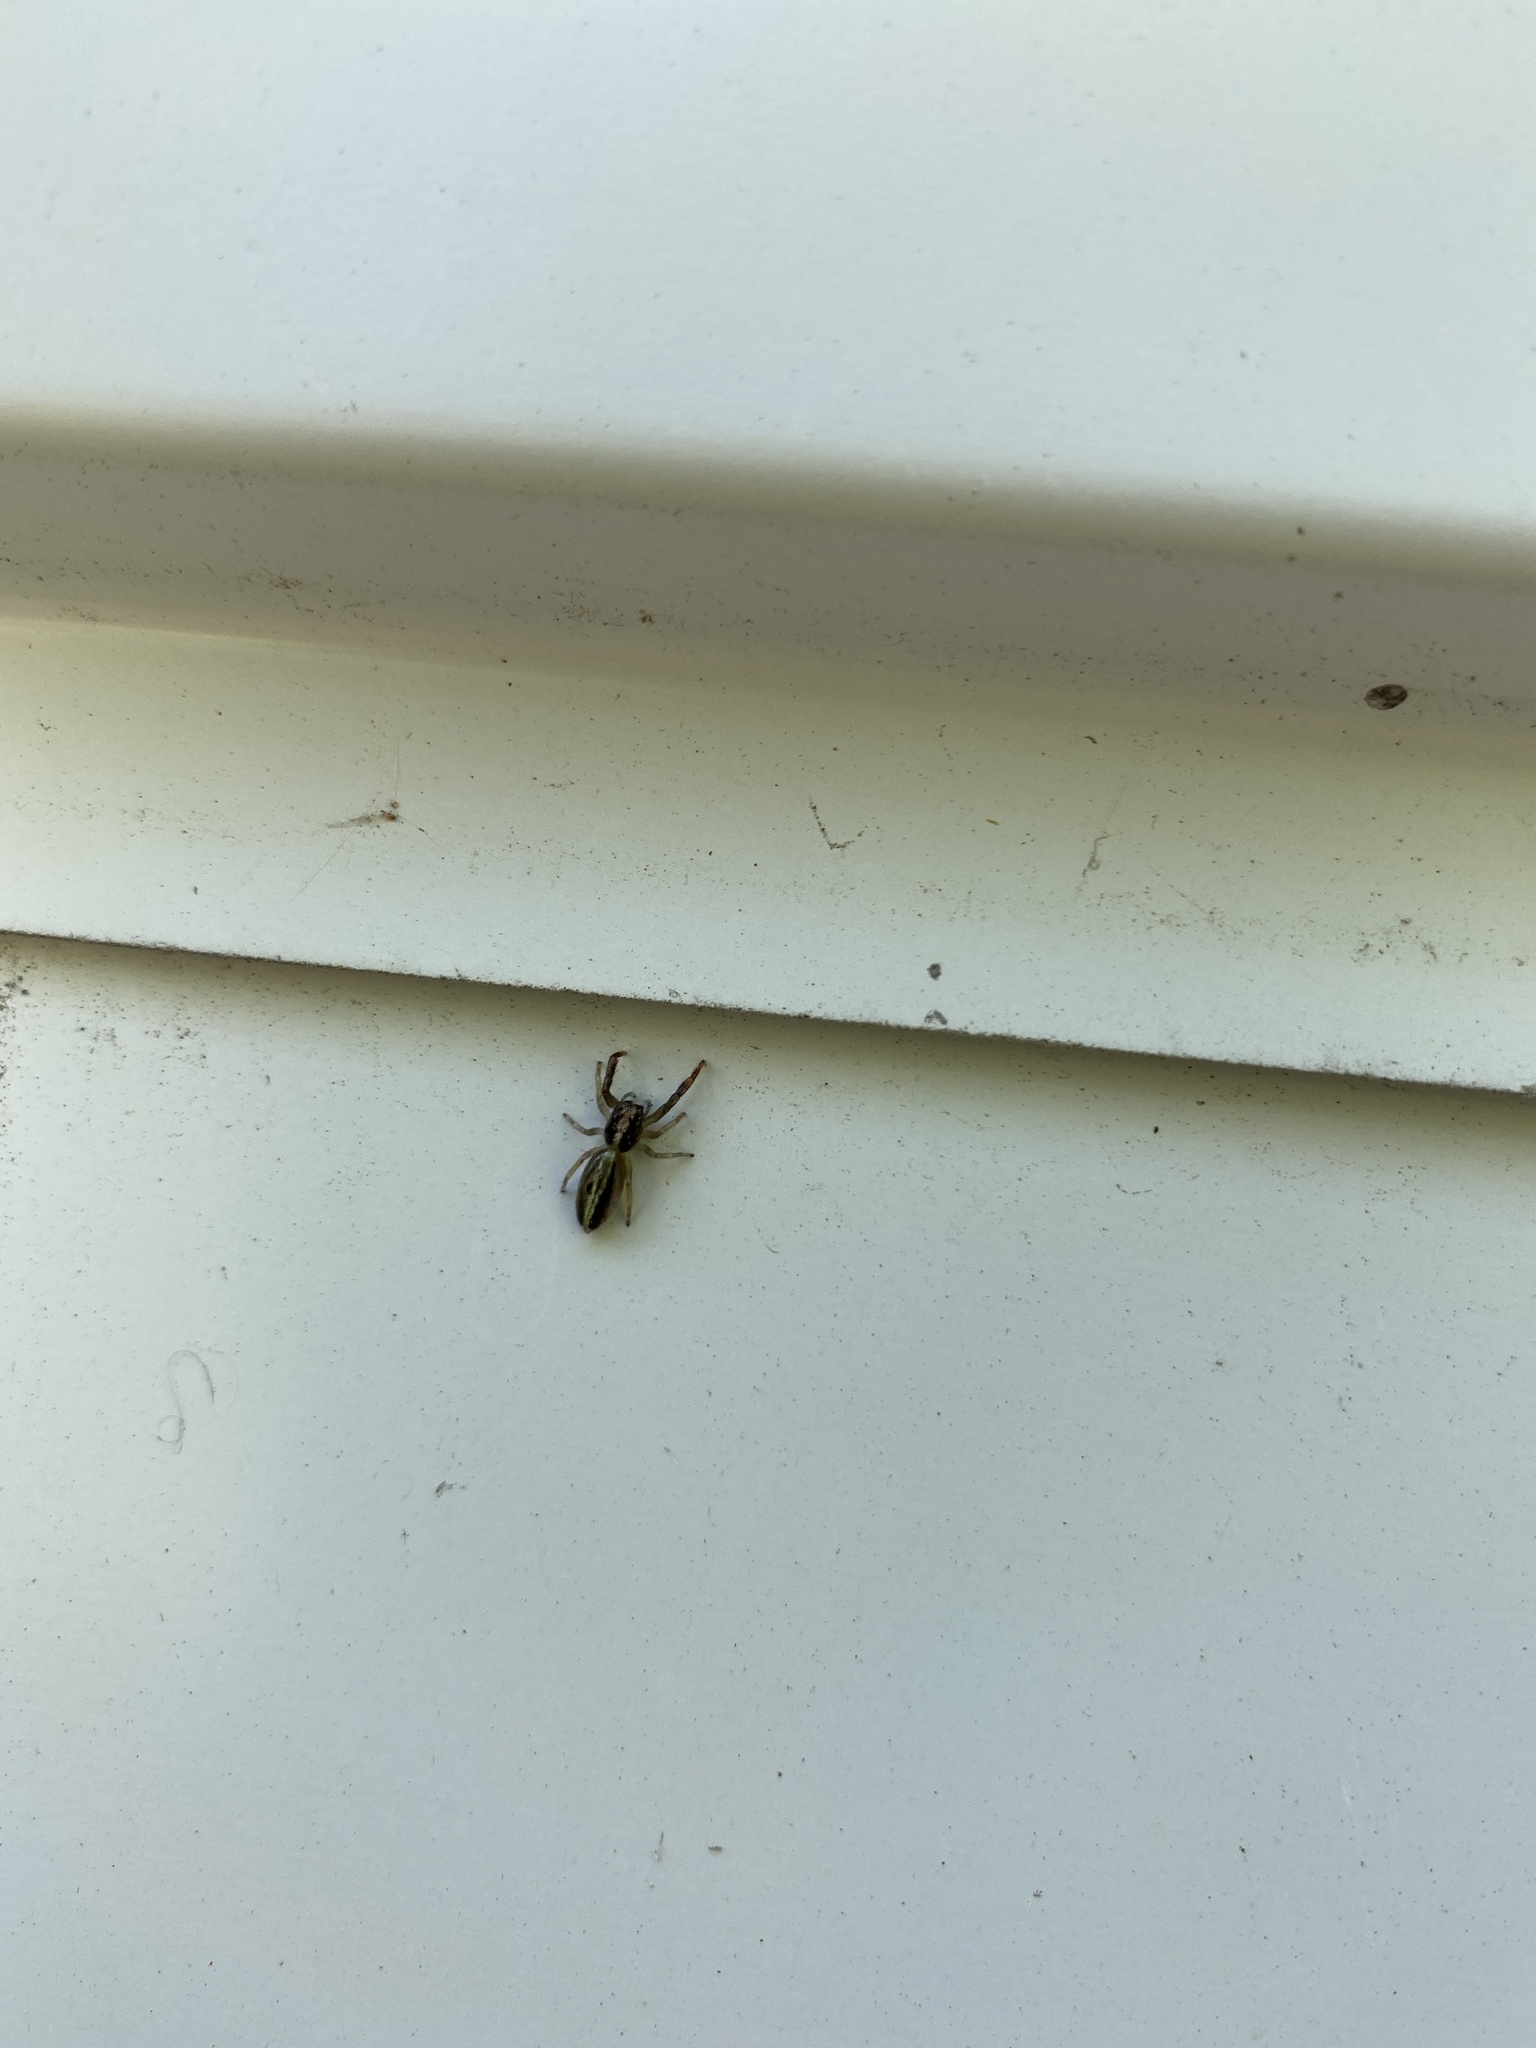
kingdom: Animalia
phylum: Arthropoda
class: Arachnida
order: Araneae
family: Salticidae
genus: Trite
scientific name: Trite planiceps
